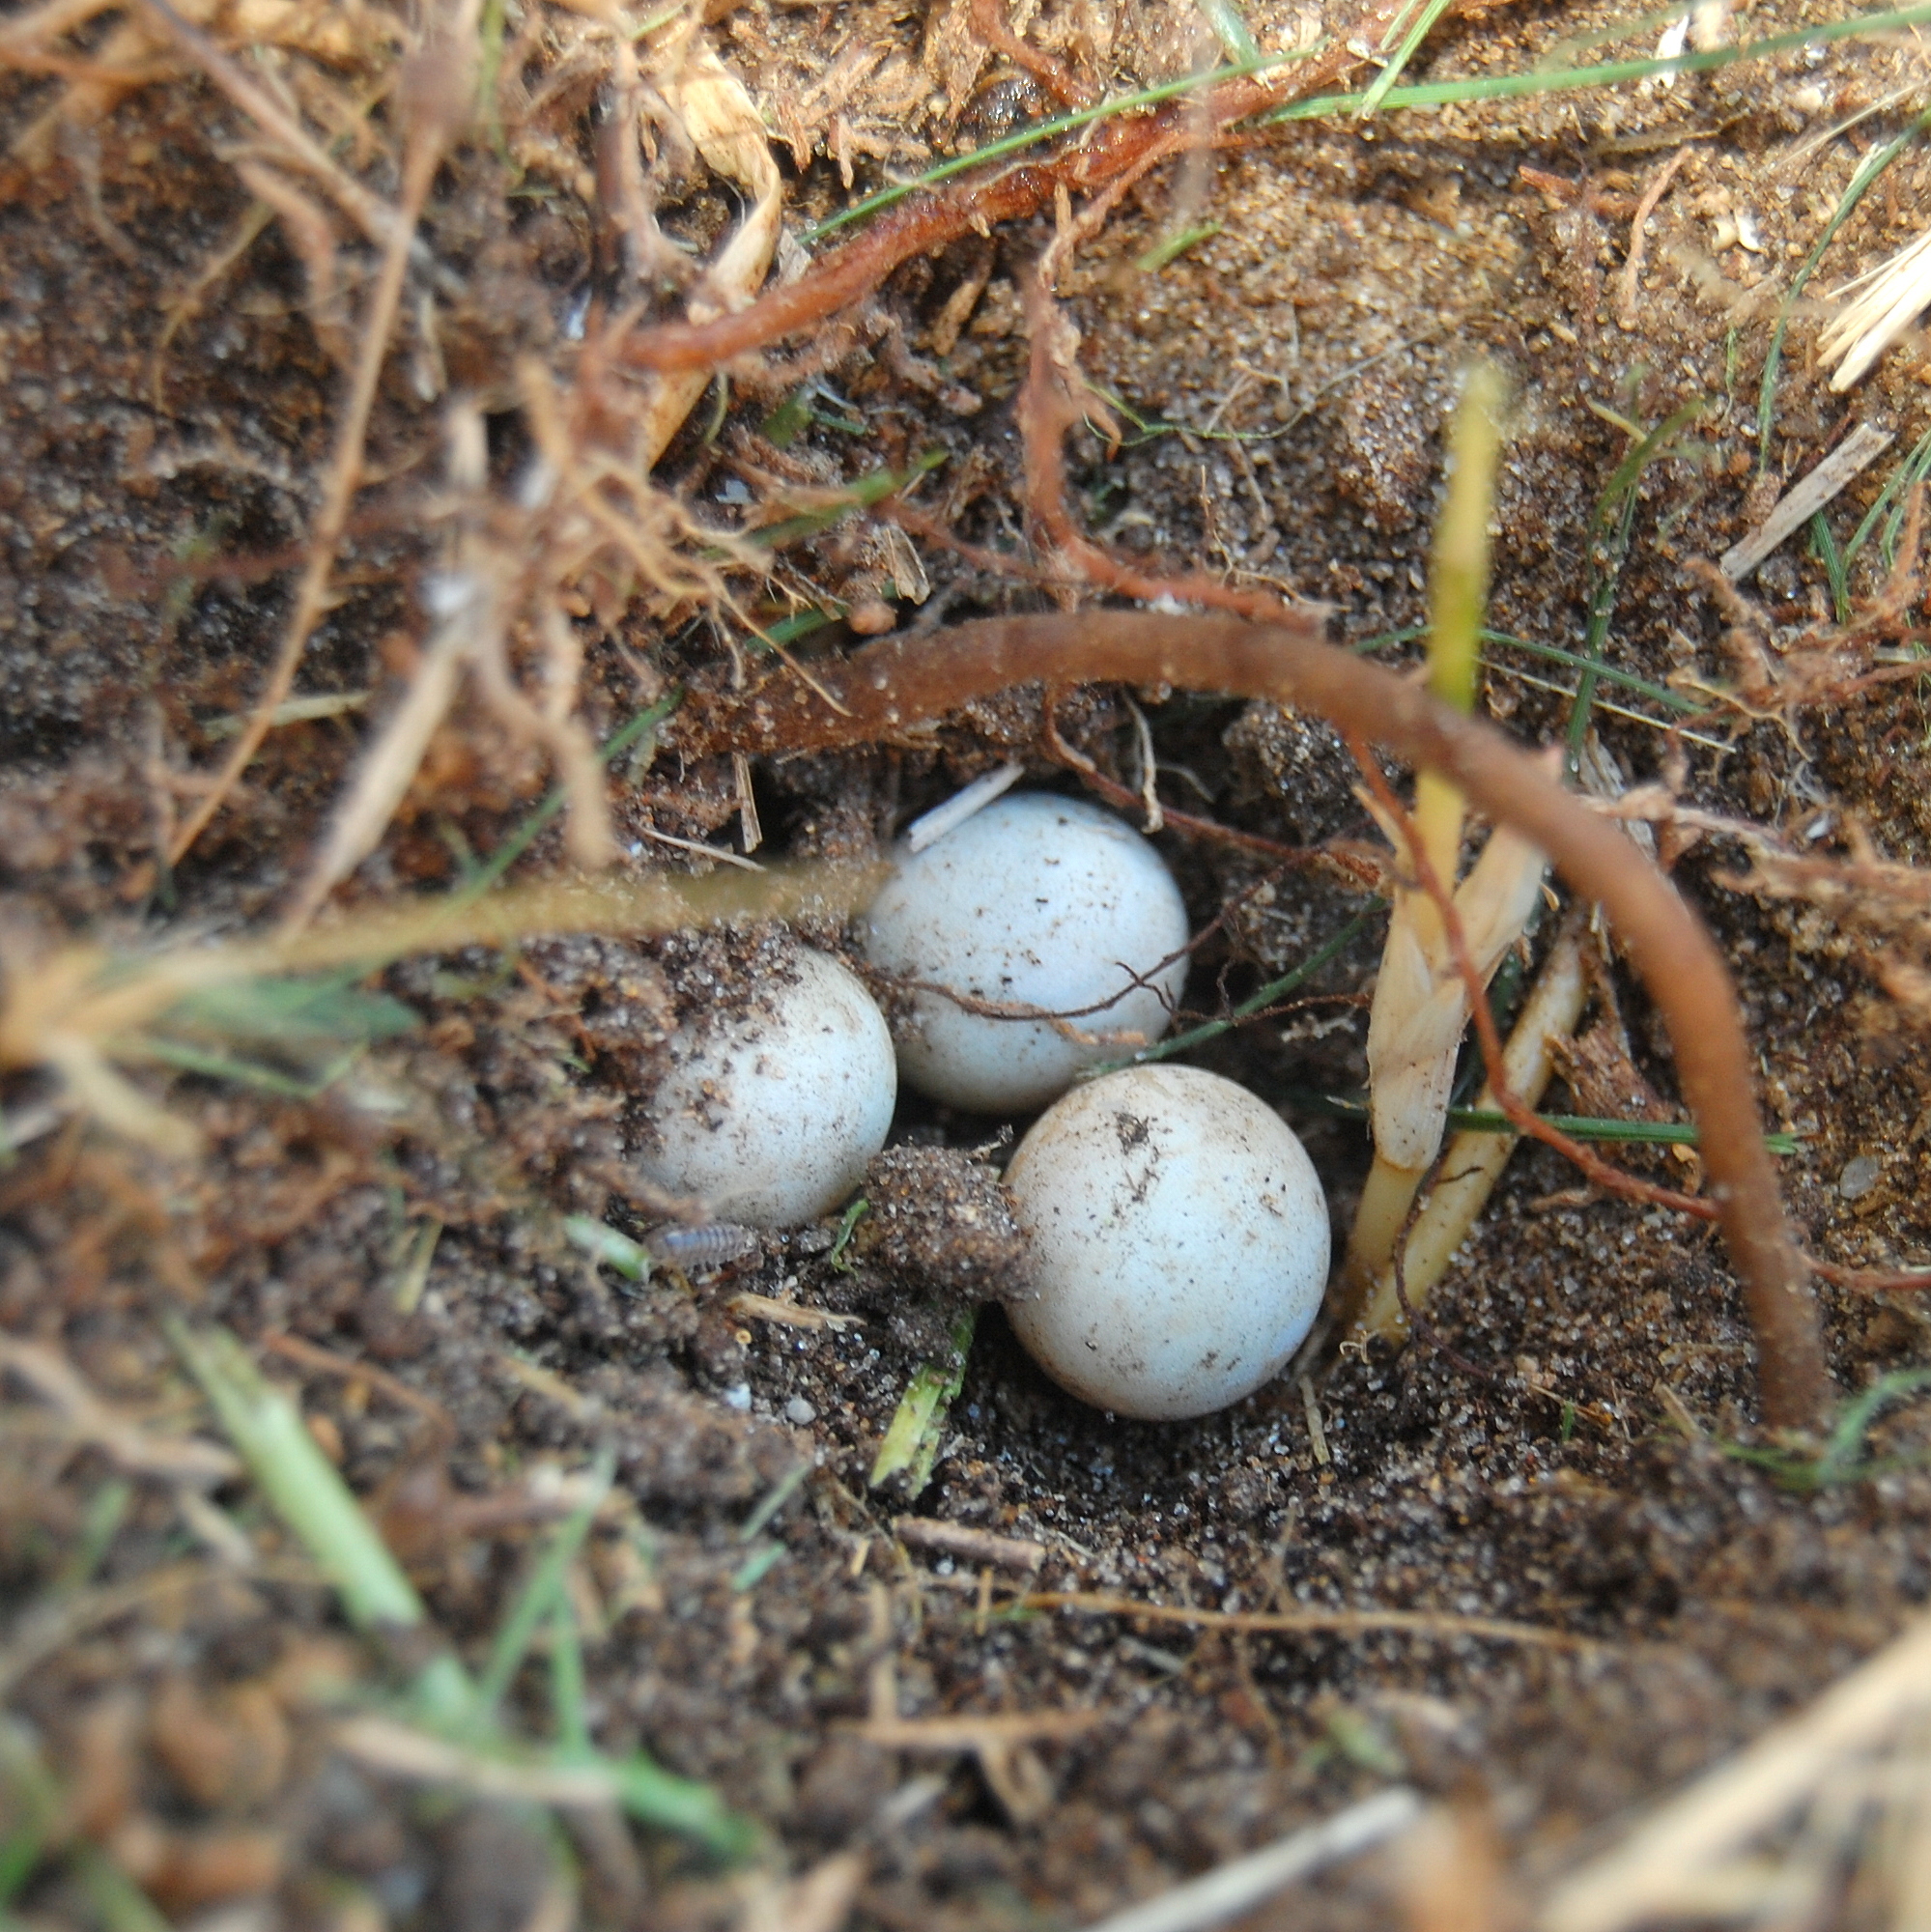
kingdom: Animalia
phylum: Chordata
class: Squamata
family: Gekkonidae
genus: Hemidactylus
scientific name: Hemidactylus mabouia
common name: House gecko
